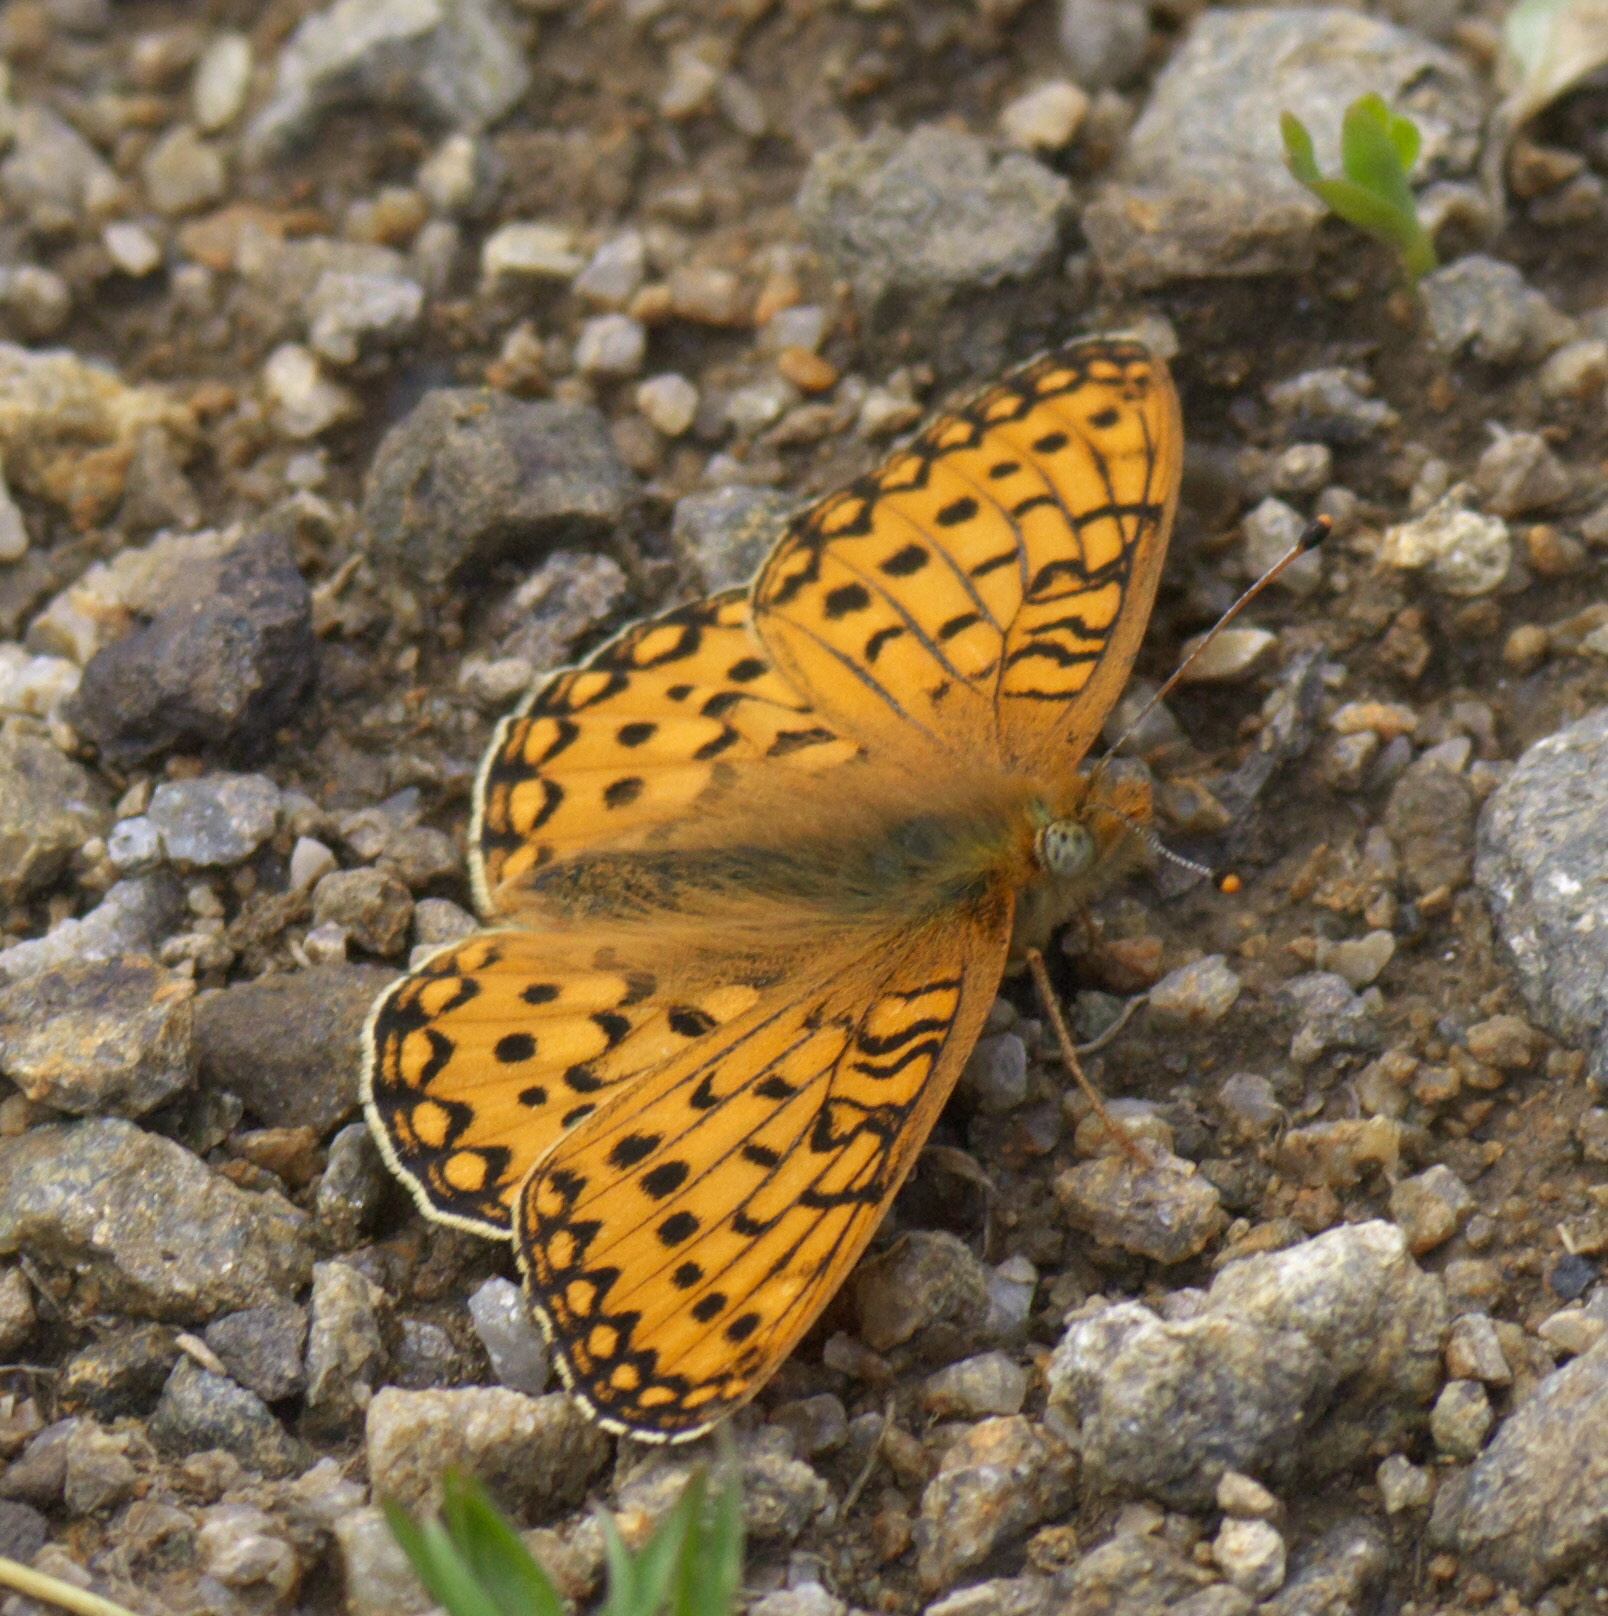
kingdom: Animalia
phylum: Arthropoda
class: Insecta
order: Lepidoptera
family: Nymphalidae
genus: Speyeria
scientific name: Speyeria mormonia
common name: Mormon fritillary
